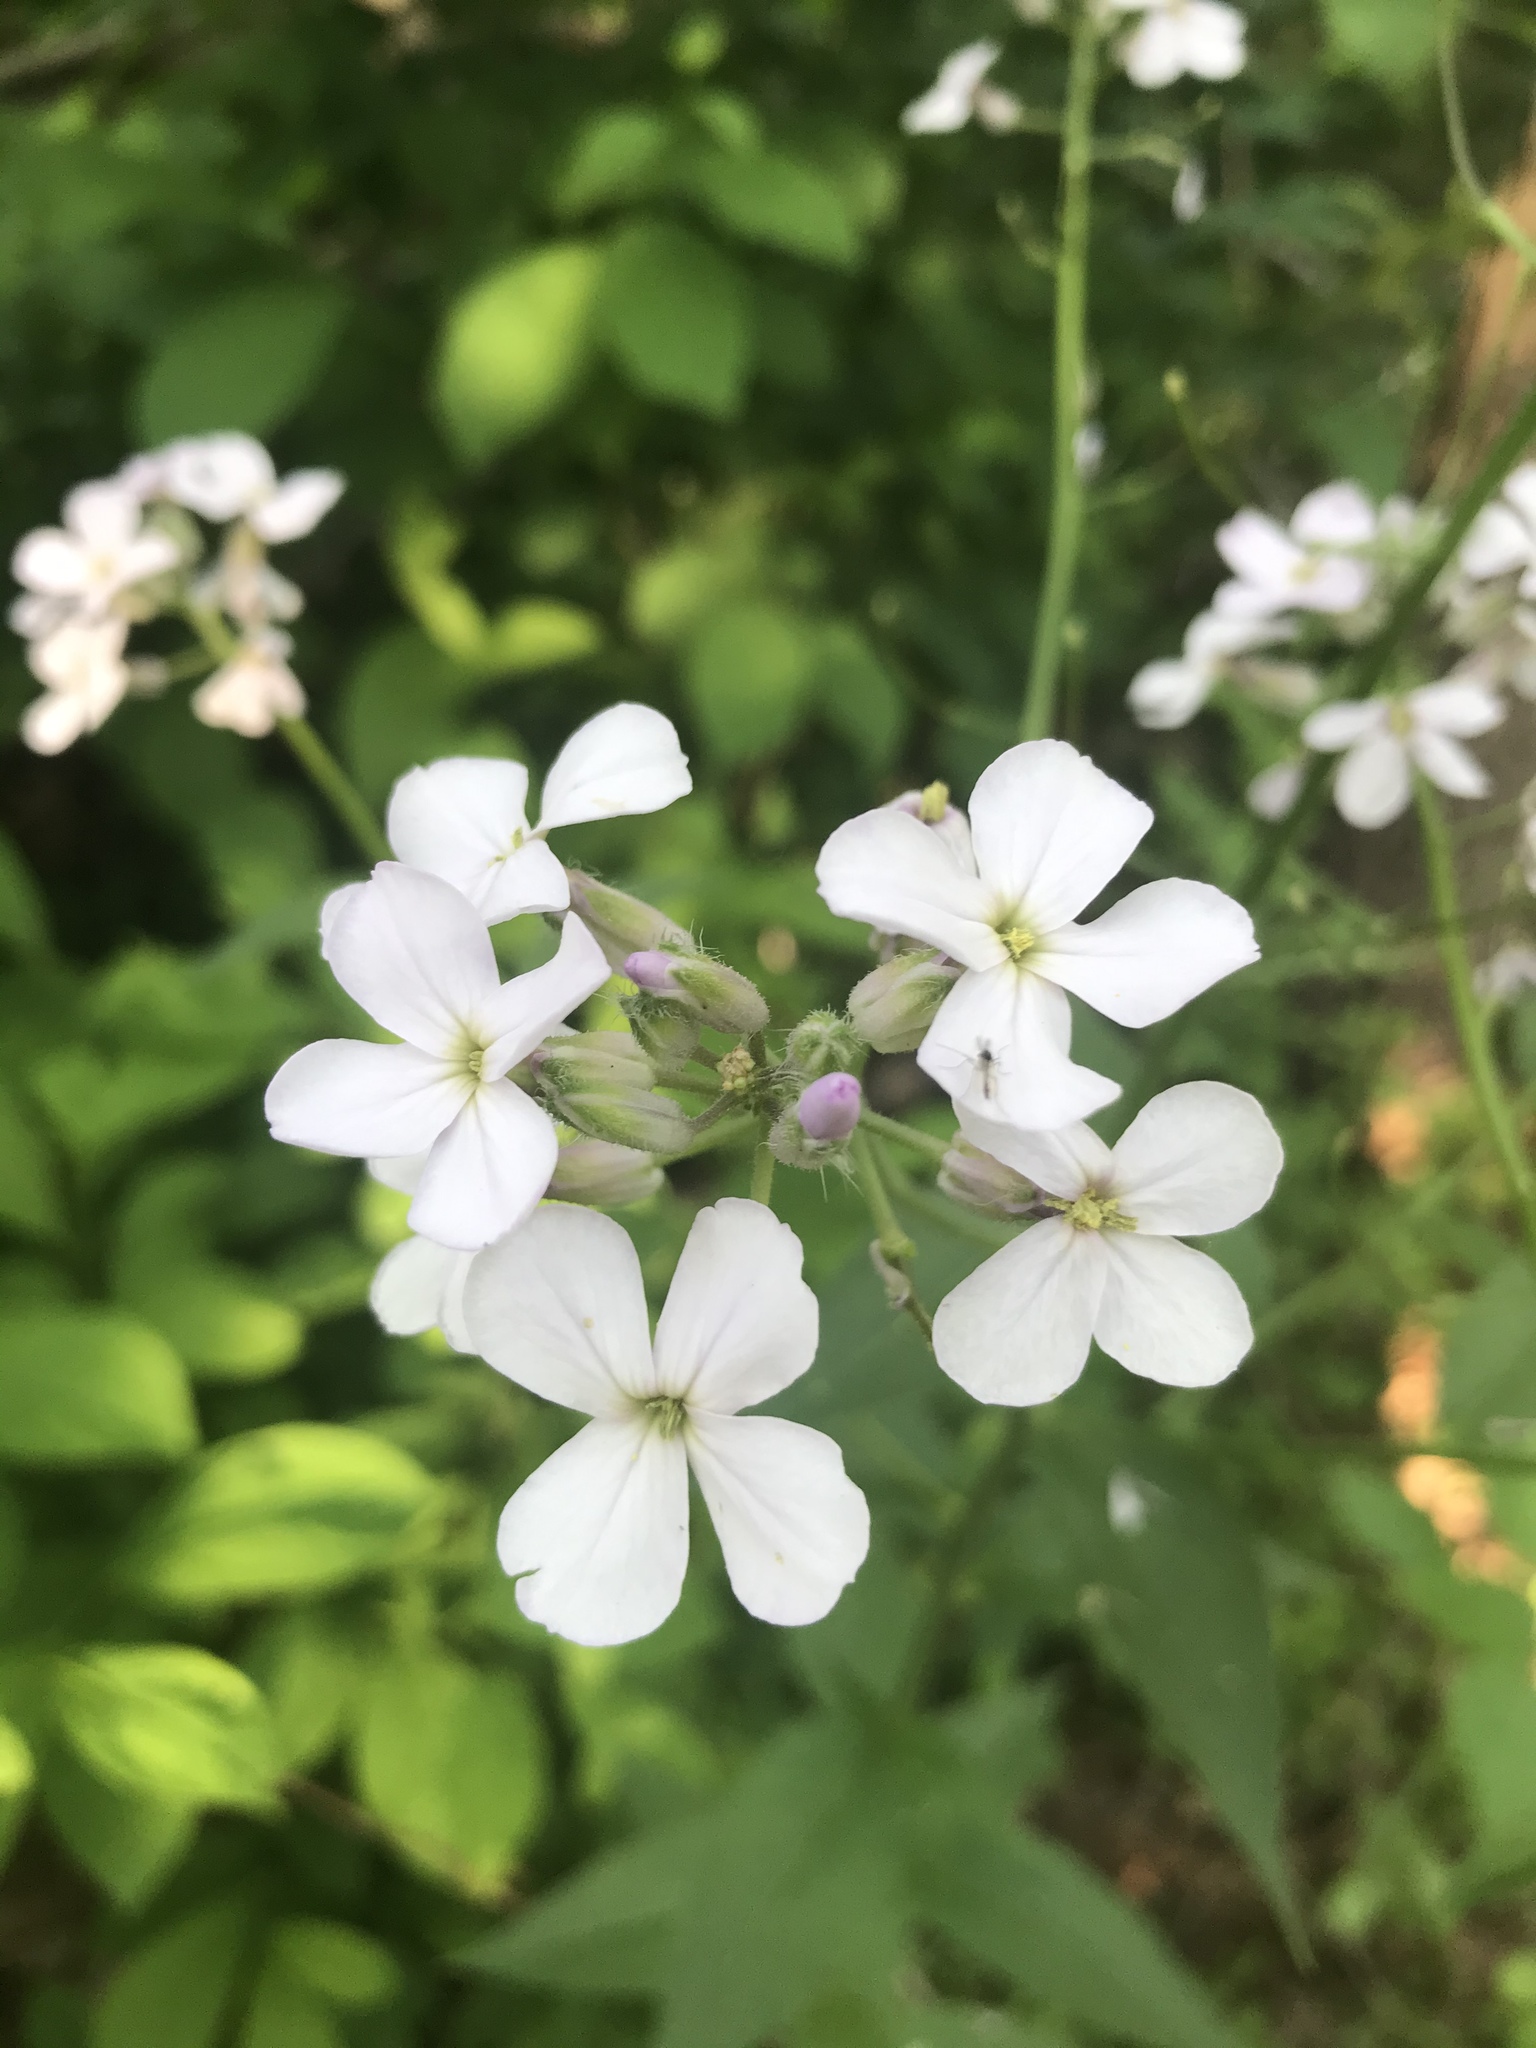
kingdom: Plantae
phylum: Tracheophyta
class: Magnoliopsida
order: Brassicales
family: Brassicaceae
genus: Hesperis
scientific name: Hesperis matronalis
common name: Dame's-violet
